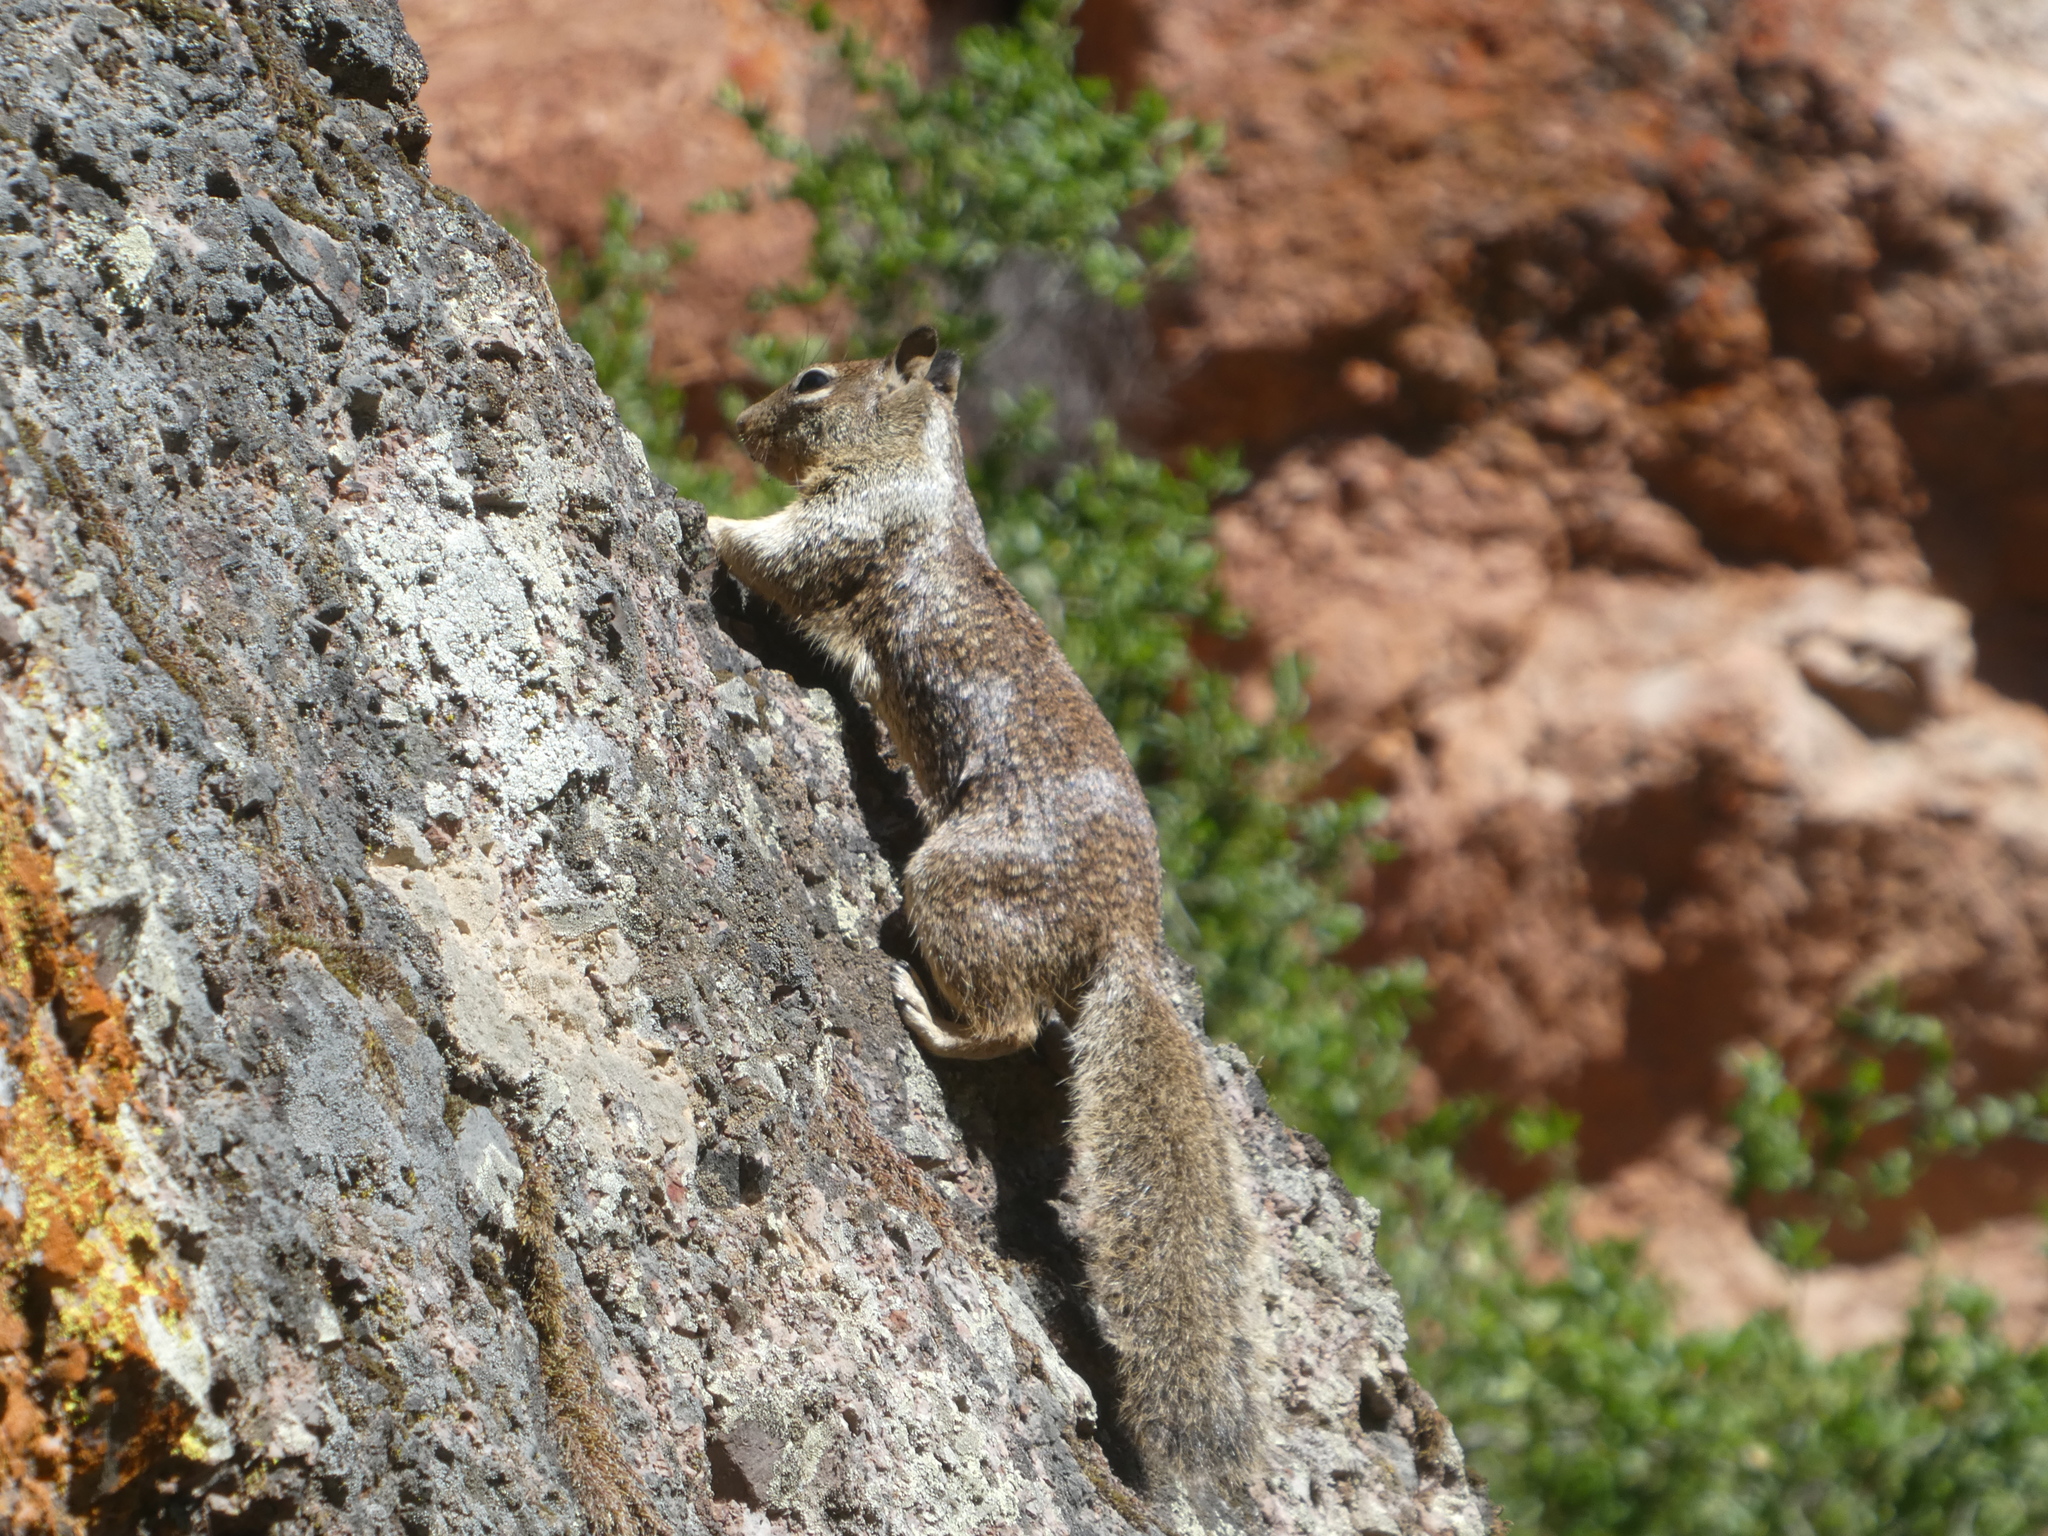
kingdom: Animalia
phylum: Chordata
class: Mammalia
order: Rodentia
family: Sciuridae
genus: Otospermophilus
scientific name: Otospermophilus beecheyi
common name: California ground squirrel
